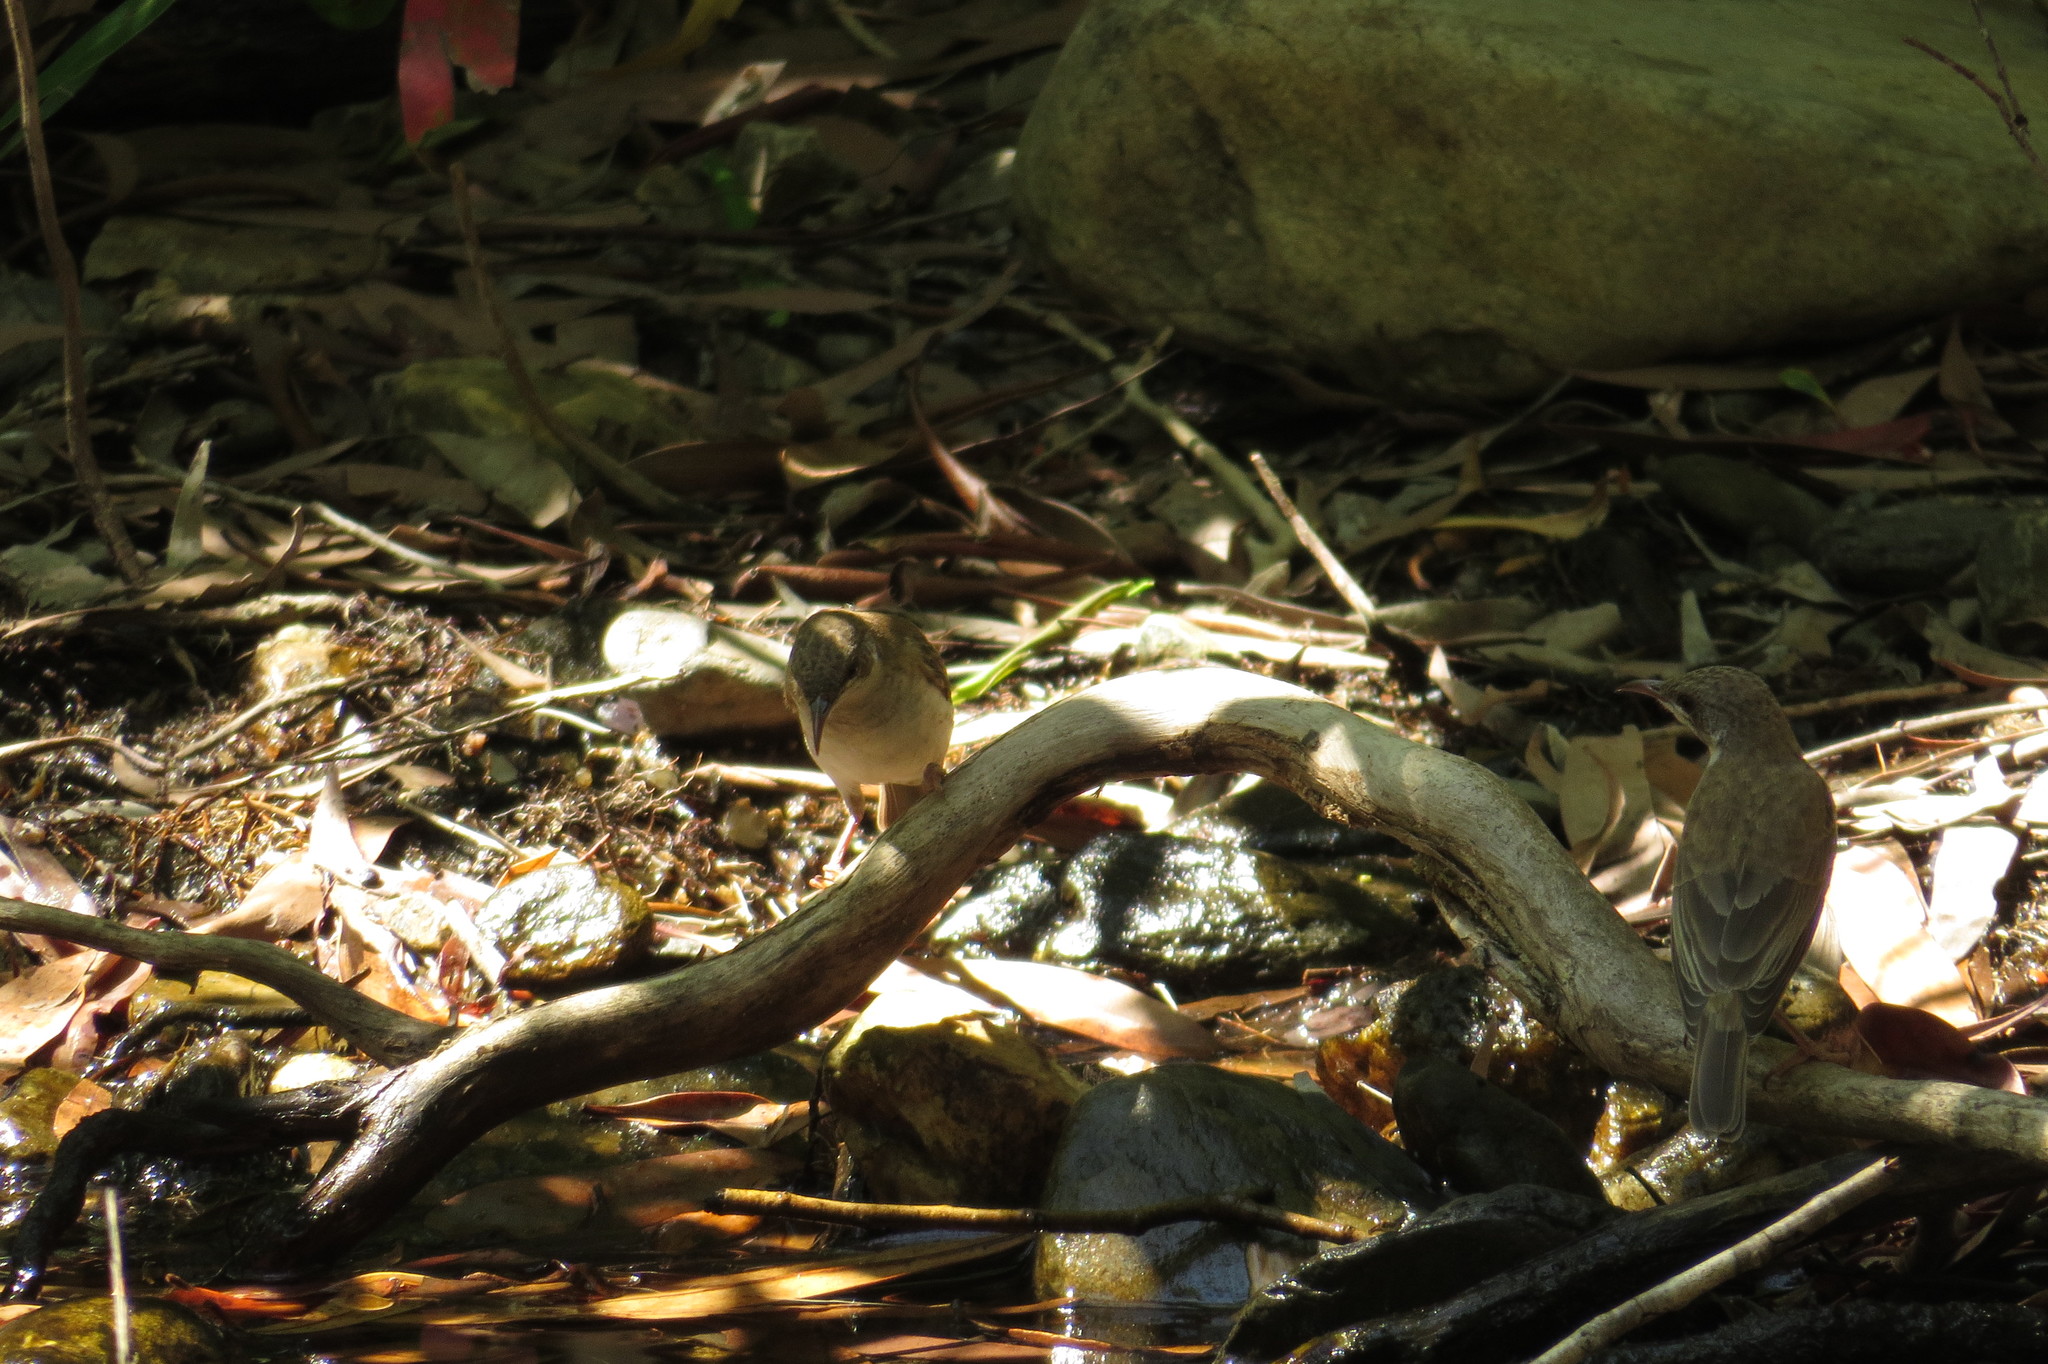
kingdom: Animalia
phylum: Chordata
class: Aves
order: Passeriformes
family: Meliphagidae
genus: Ramsayornis
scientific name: Ramsayornis modestus
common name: Brown-backed honeyeater
